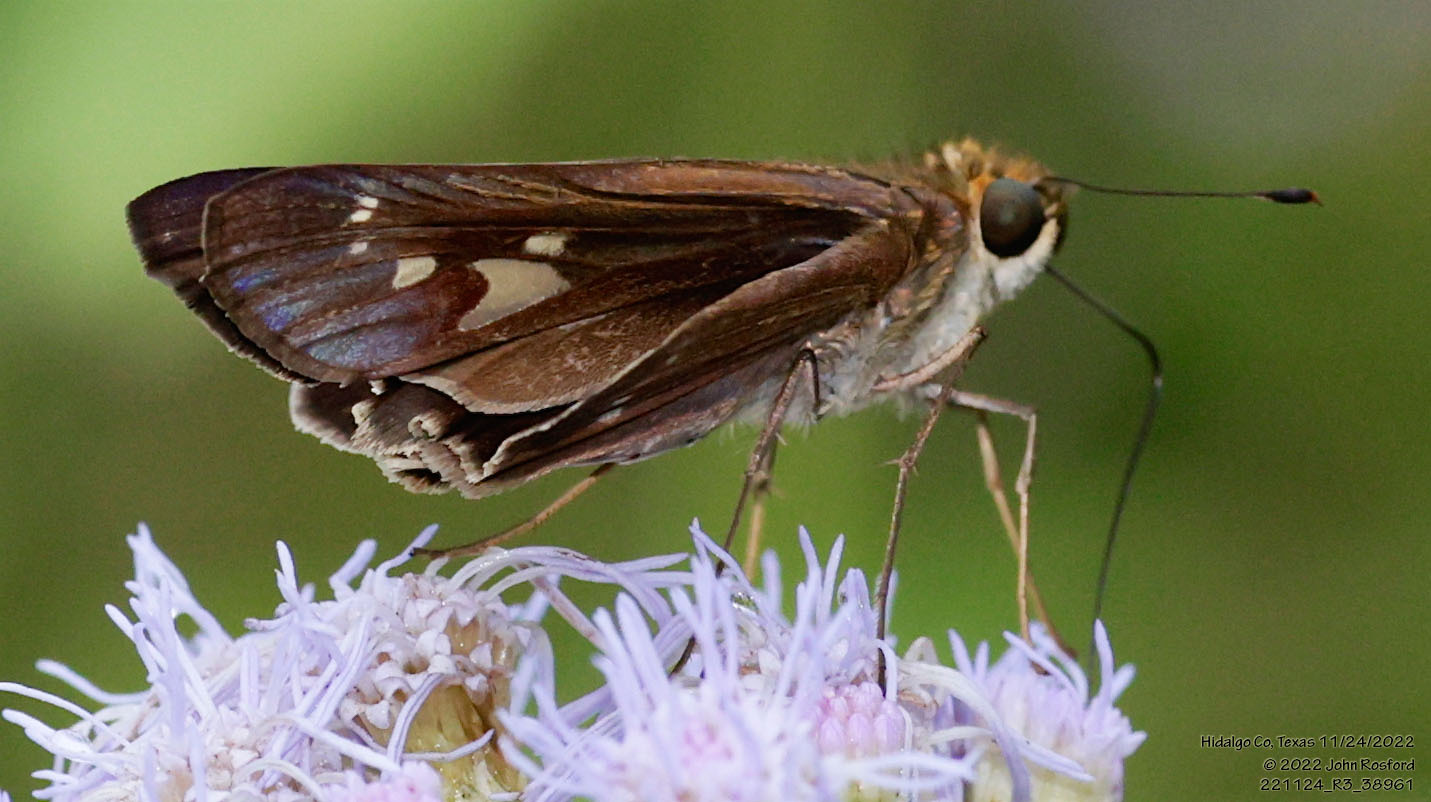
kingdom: Animalia
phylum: Arthropoda
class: Insecta
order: Lepidoptera
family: Hesperiidae
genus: Turesis
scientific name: Turesis lucas
